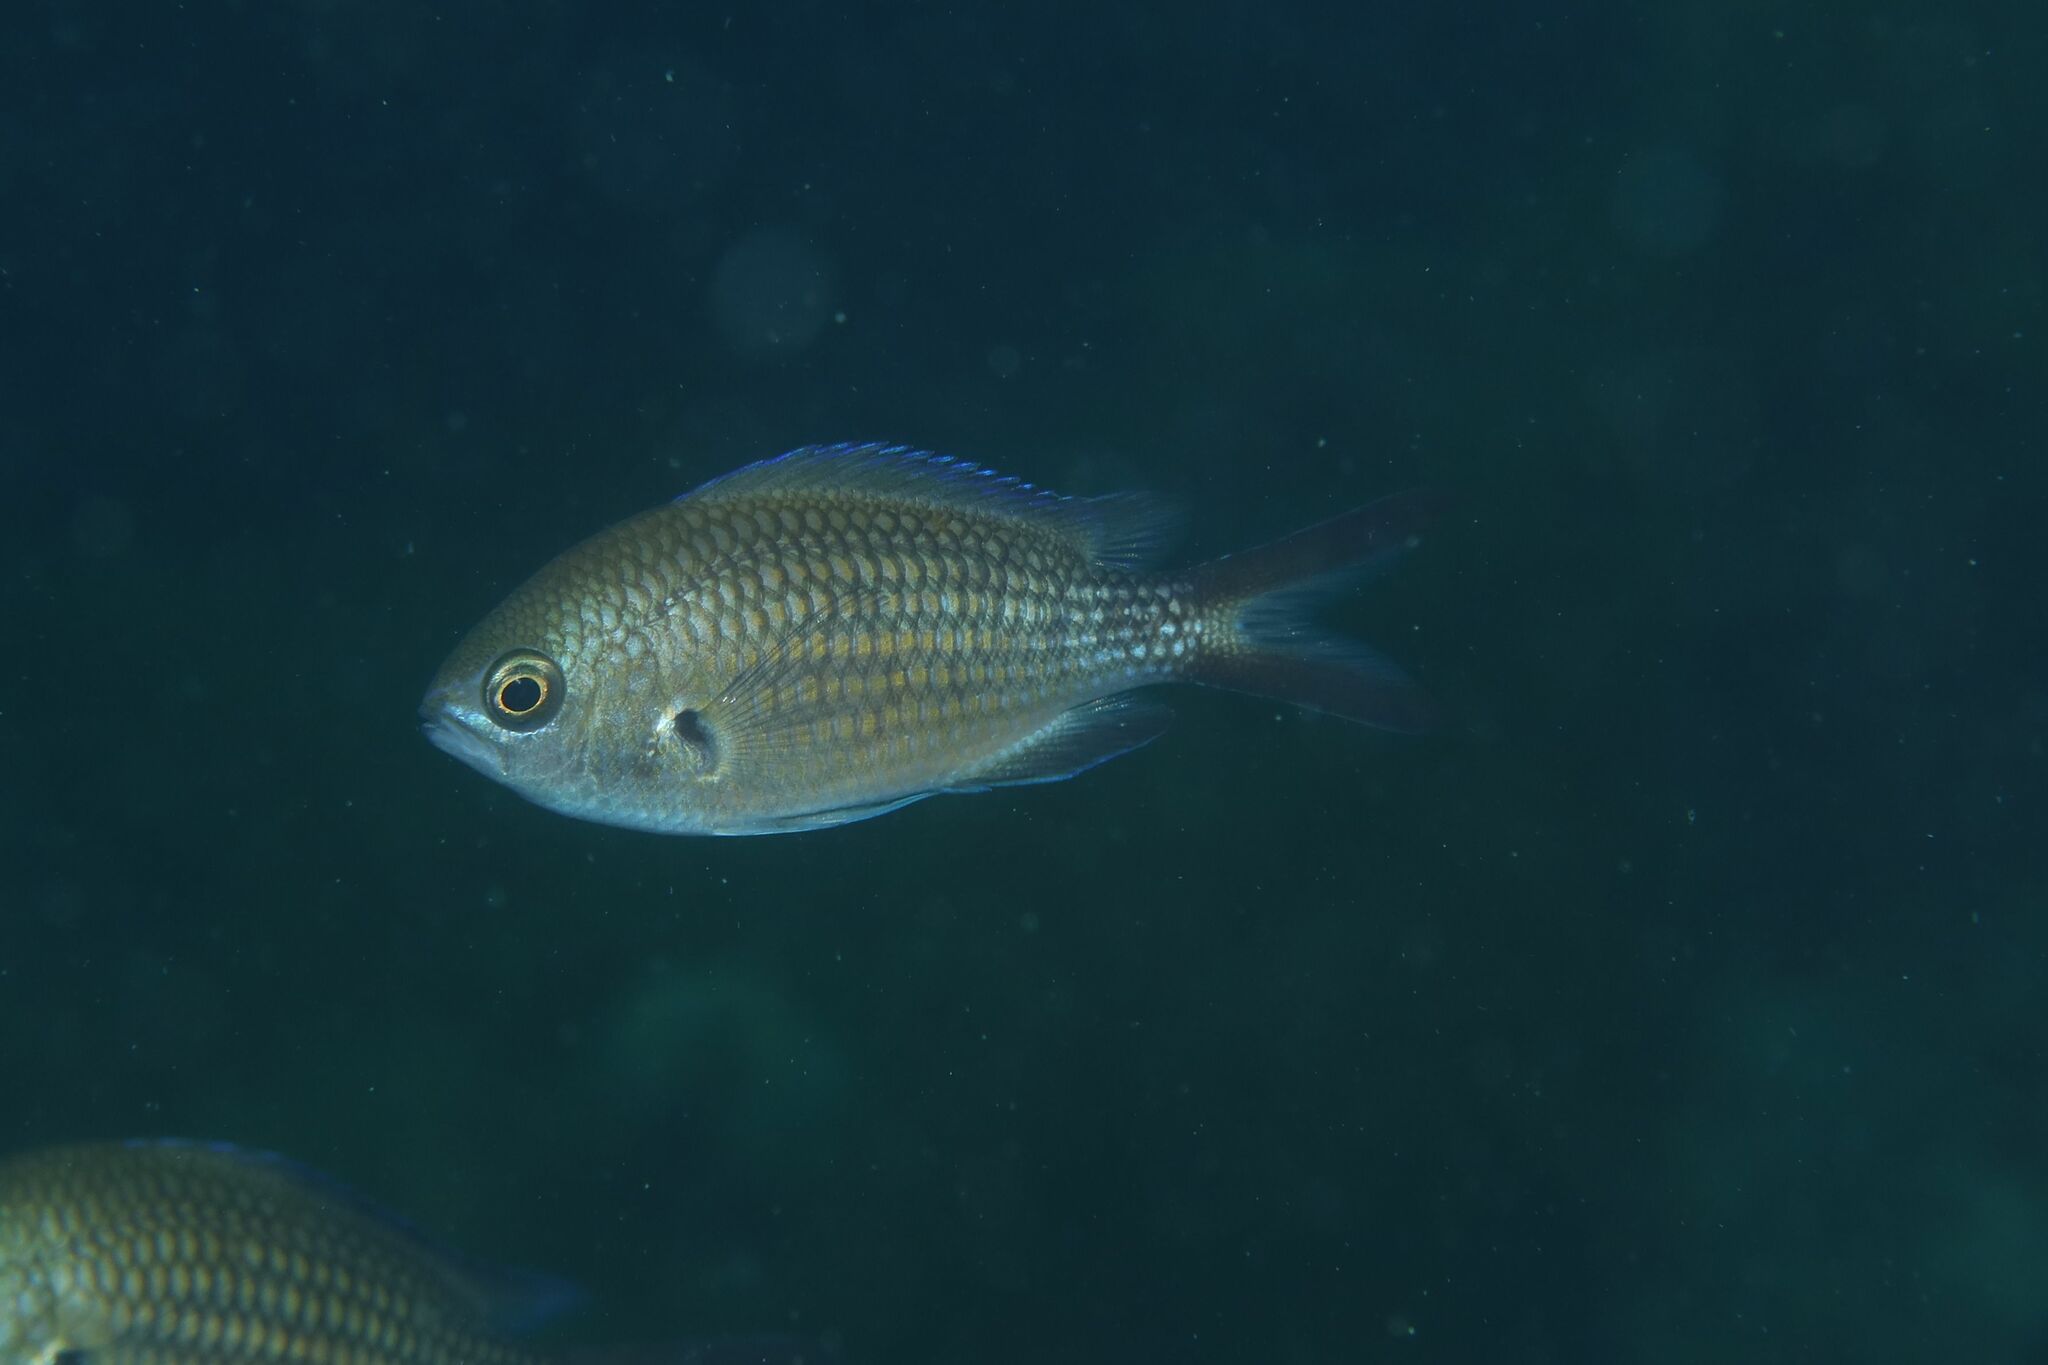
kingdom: Animalia
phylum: Chordata
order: Perciformes
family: Pomacentridae
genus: Chromis
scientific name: Chromis chromis
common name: Damselfish
